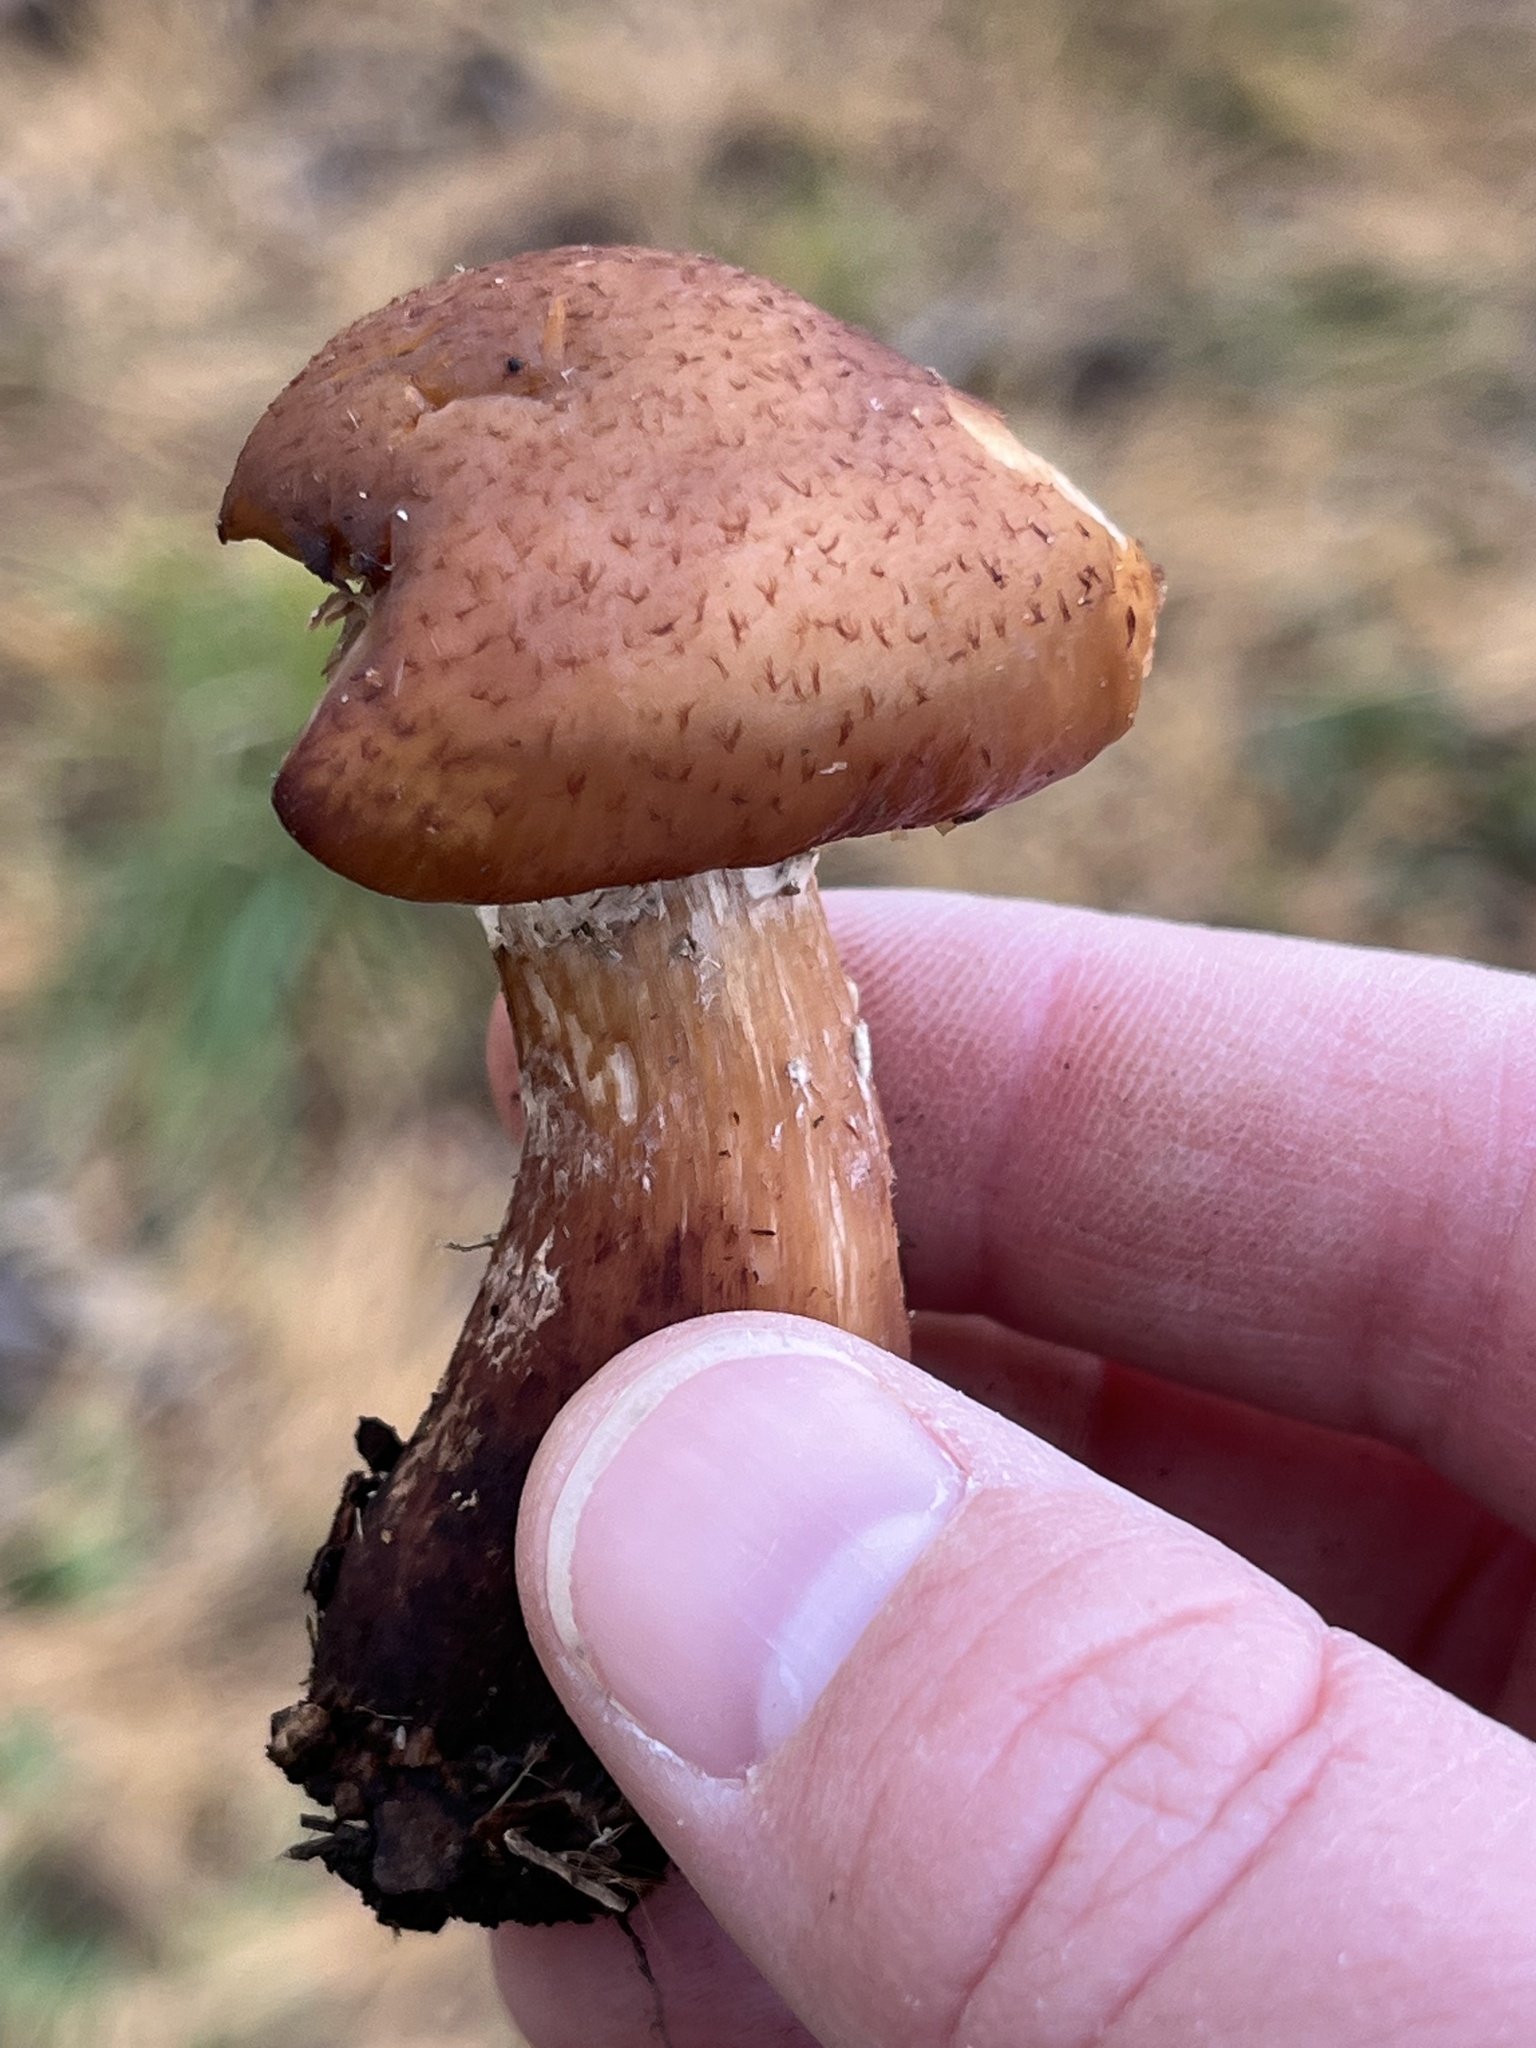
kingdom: Fungi
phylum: Basidiomycota
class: Agaricomycetes
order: Agaricales
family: Physalacriaceae
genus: Armillaria
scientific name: Armillaria gallica
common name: Bulbous honey fungus
